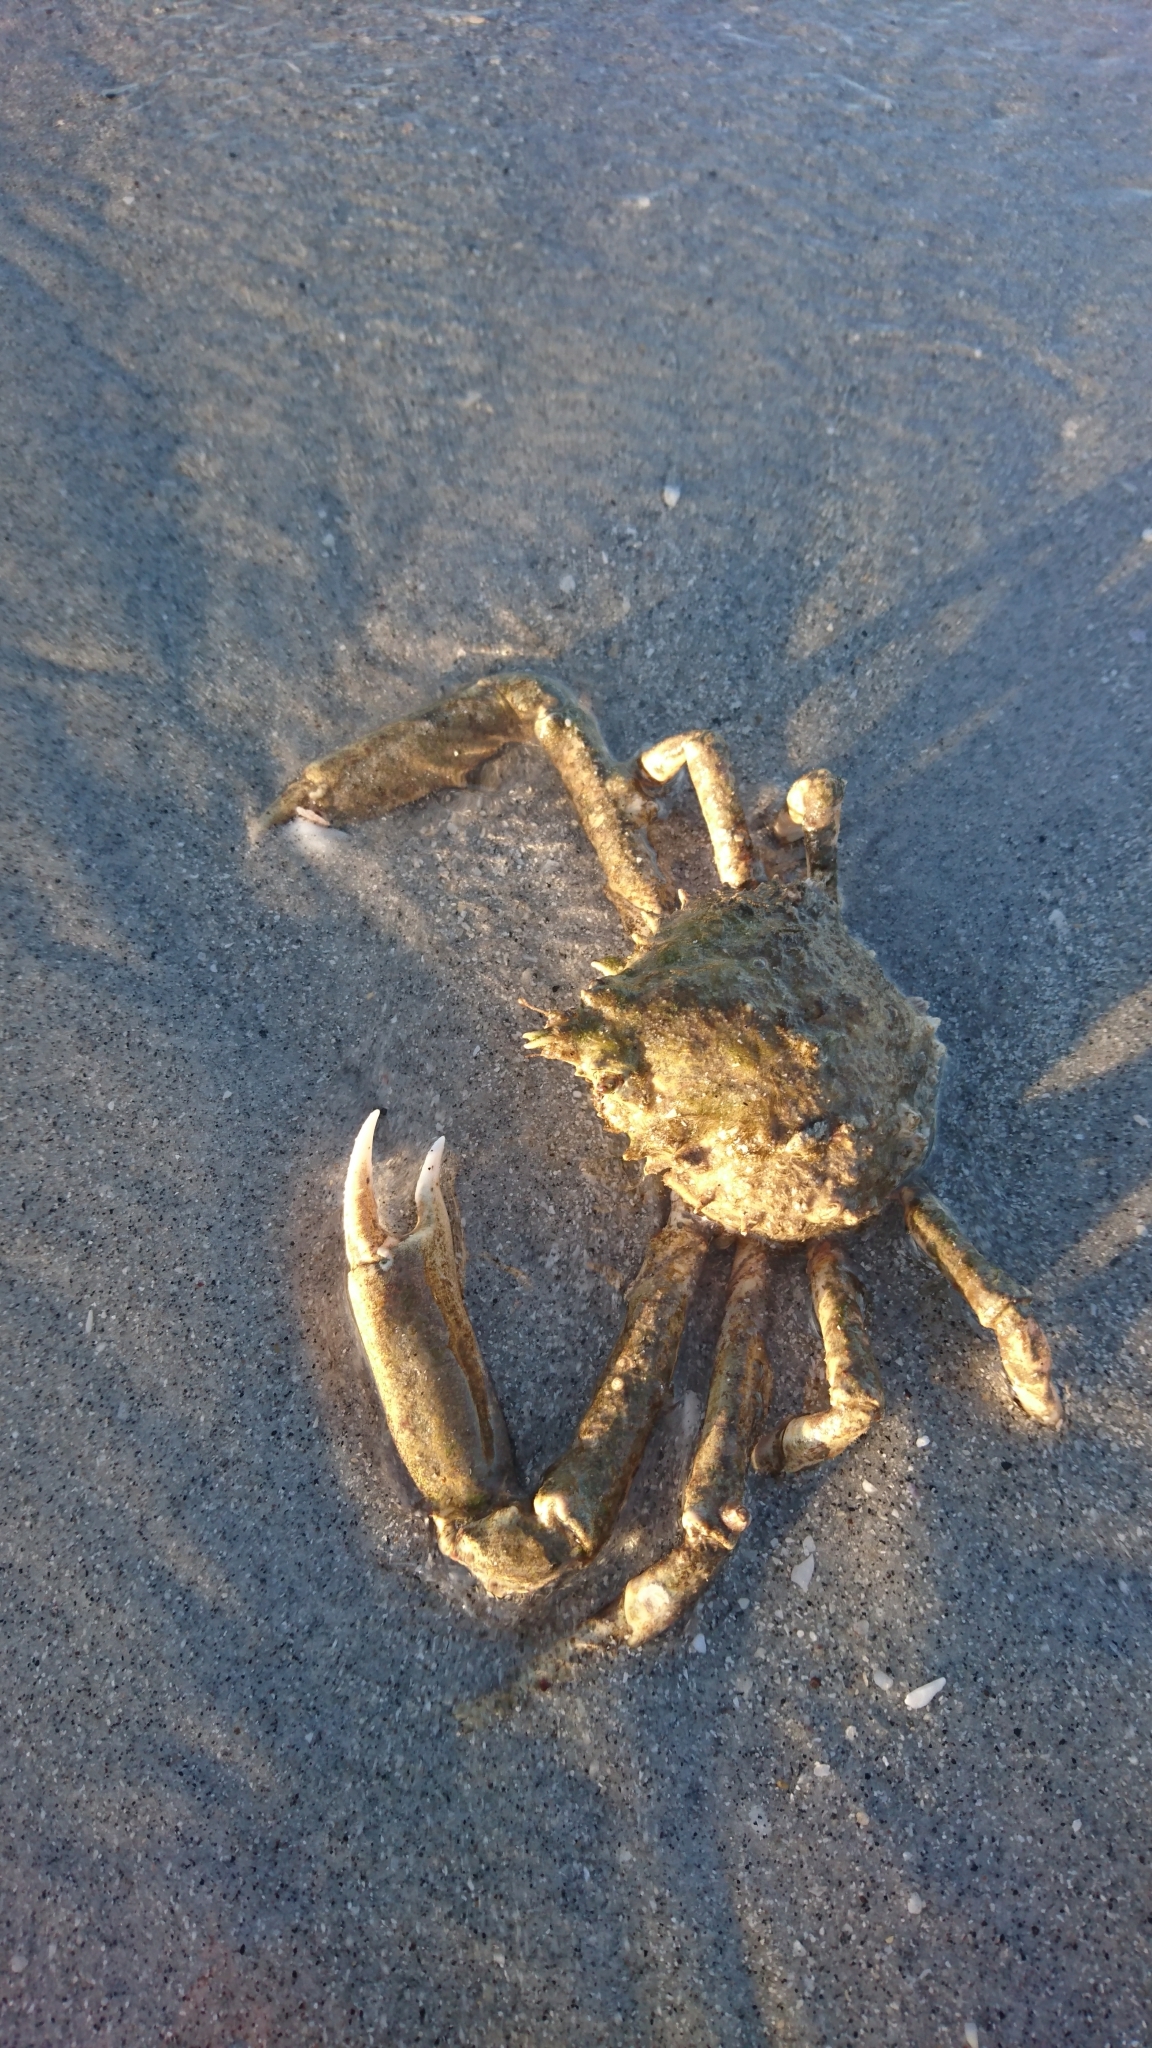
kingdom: Animalia
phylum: Arthropoda
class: Malacostraca
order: Decapoda
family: Epialtidae
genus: Libinia
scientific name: Libinia emarginata
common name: Common spider crab
